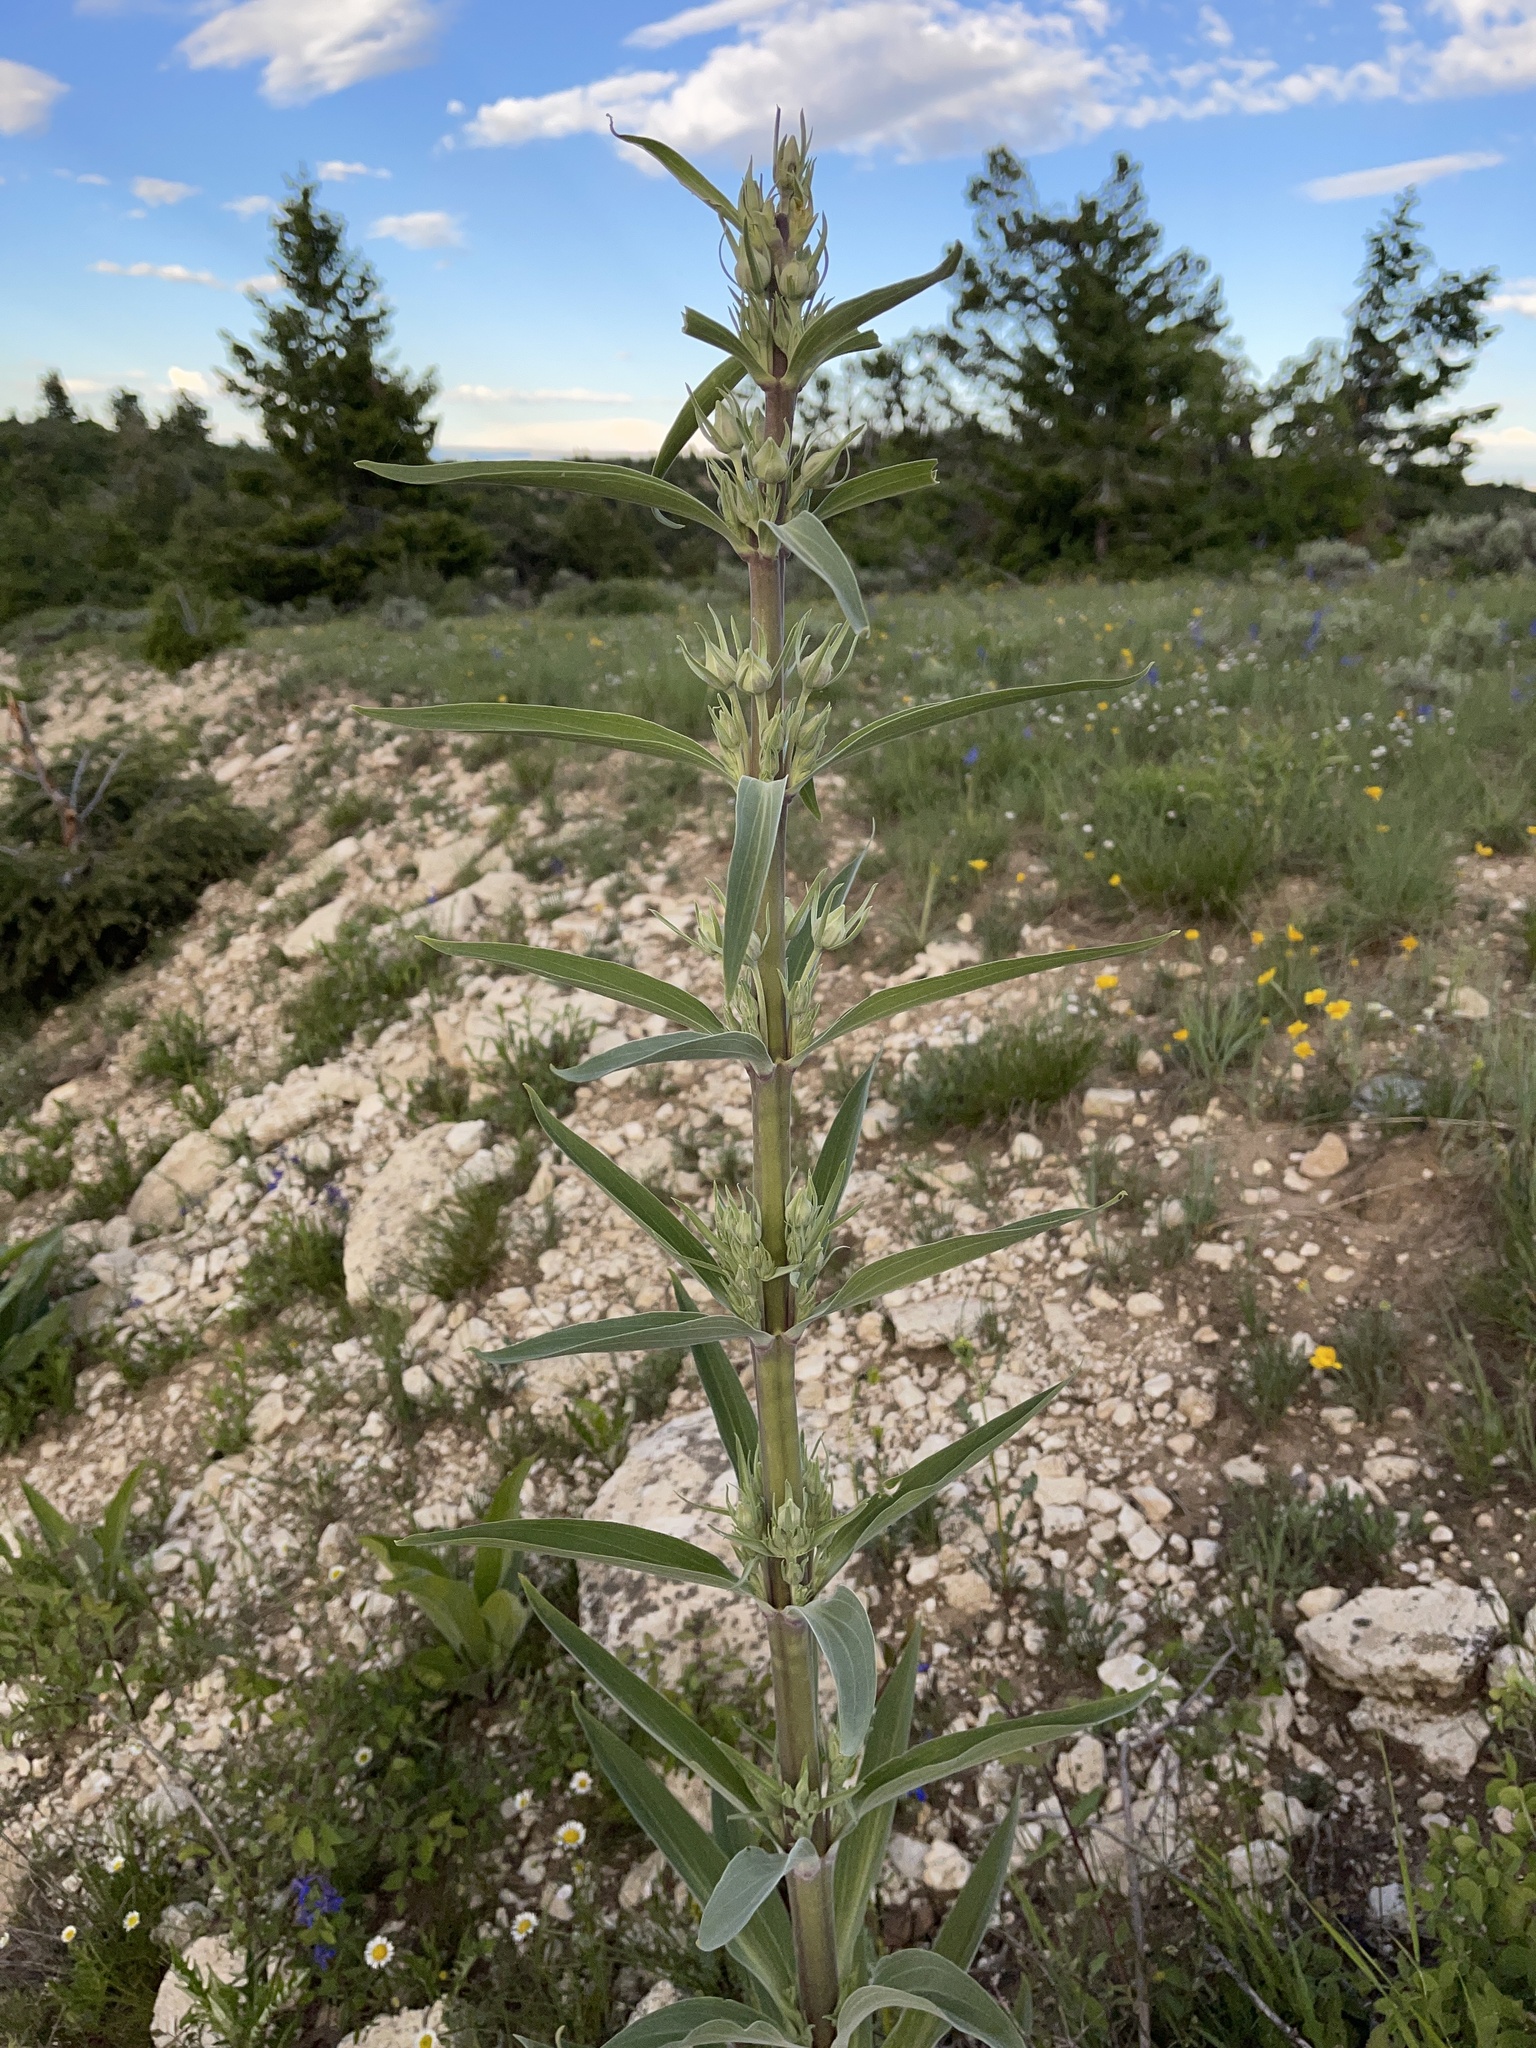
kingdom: Plantae
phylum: Tracheophyta
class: Magnoliopsida
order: Gentianales
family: Gentianaceae
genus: Frasera
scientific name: Frasera speciosa
